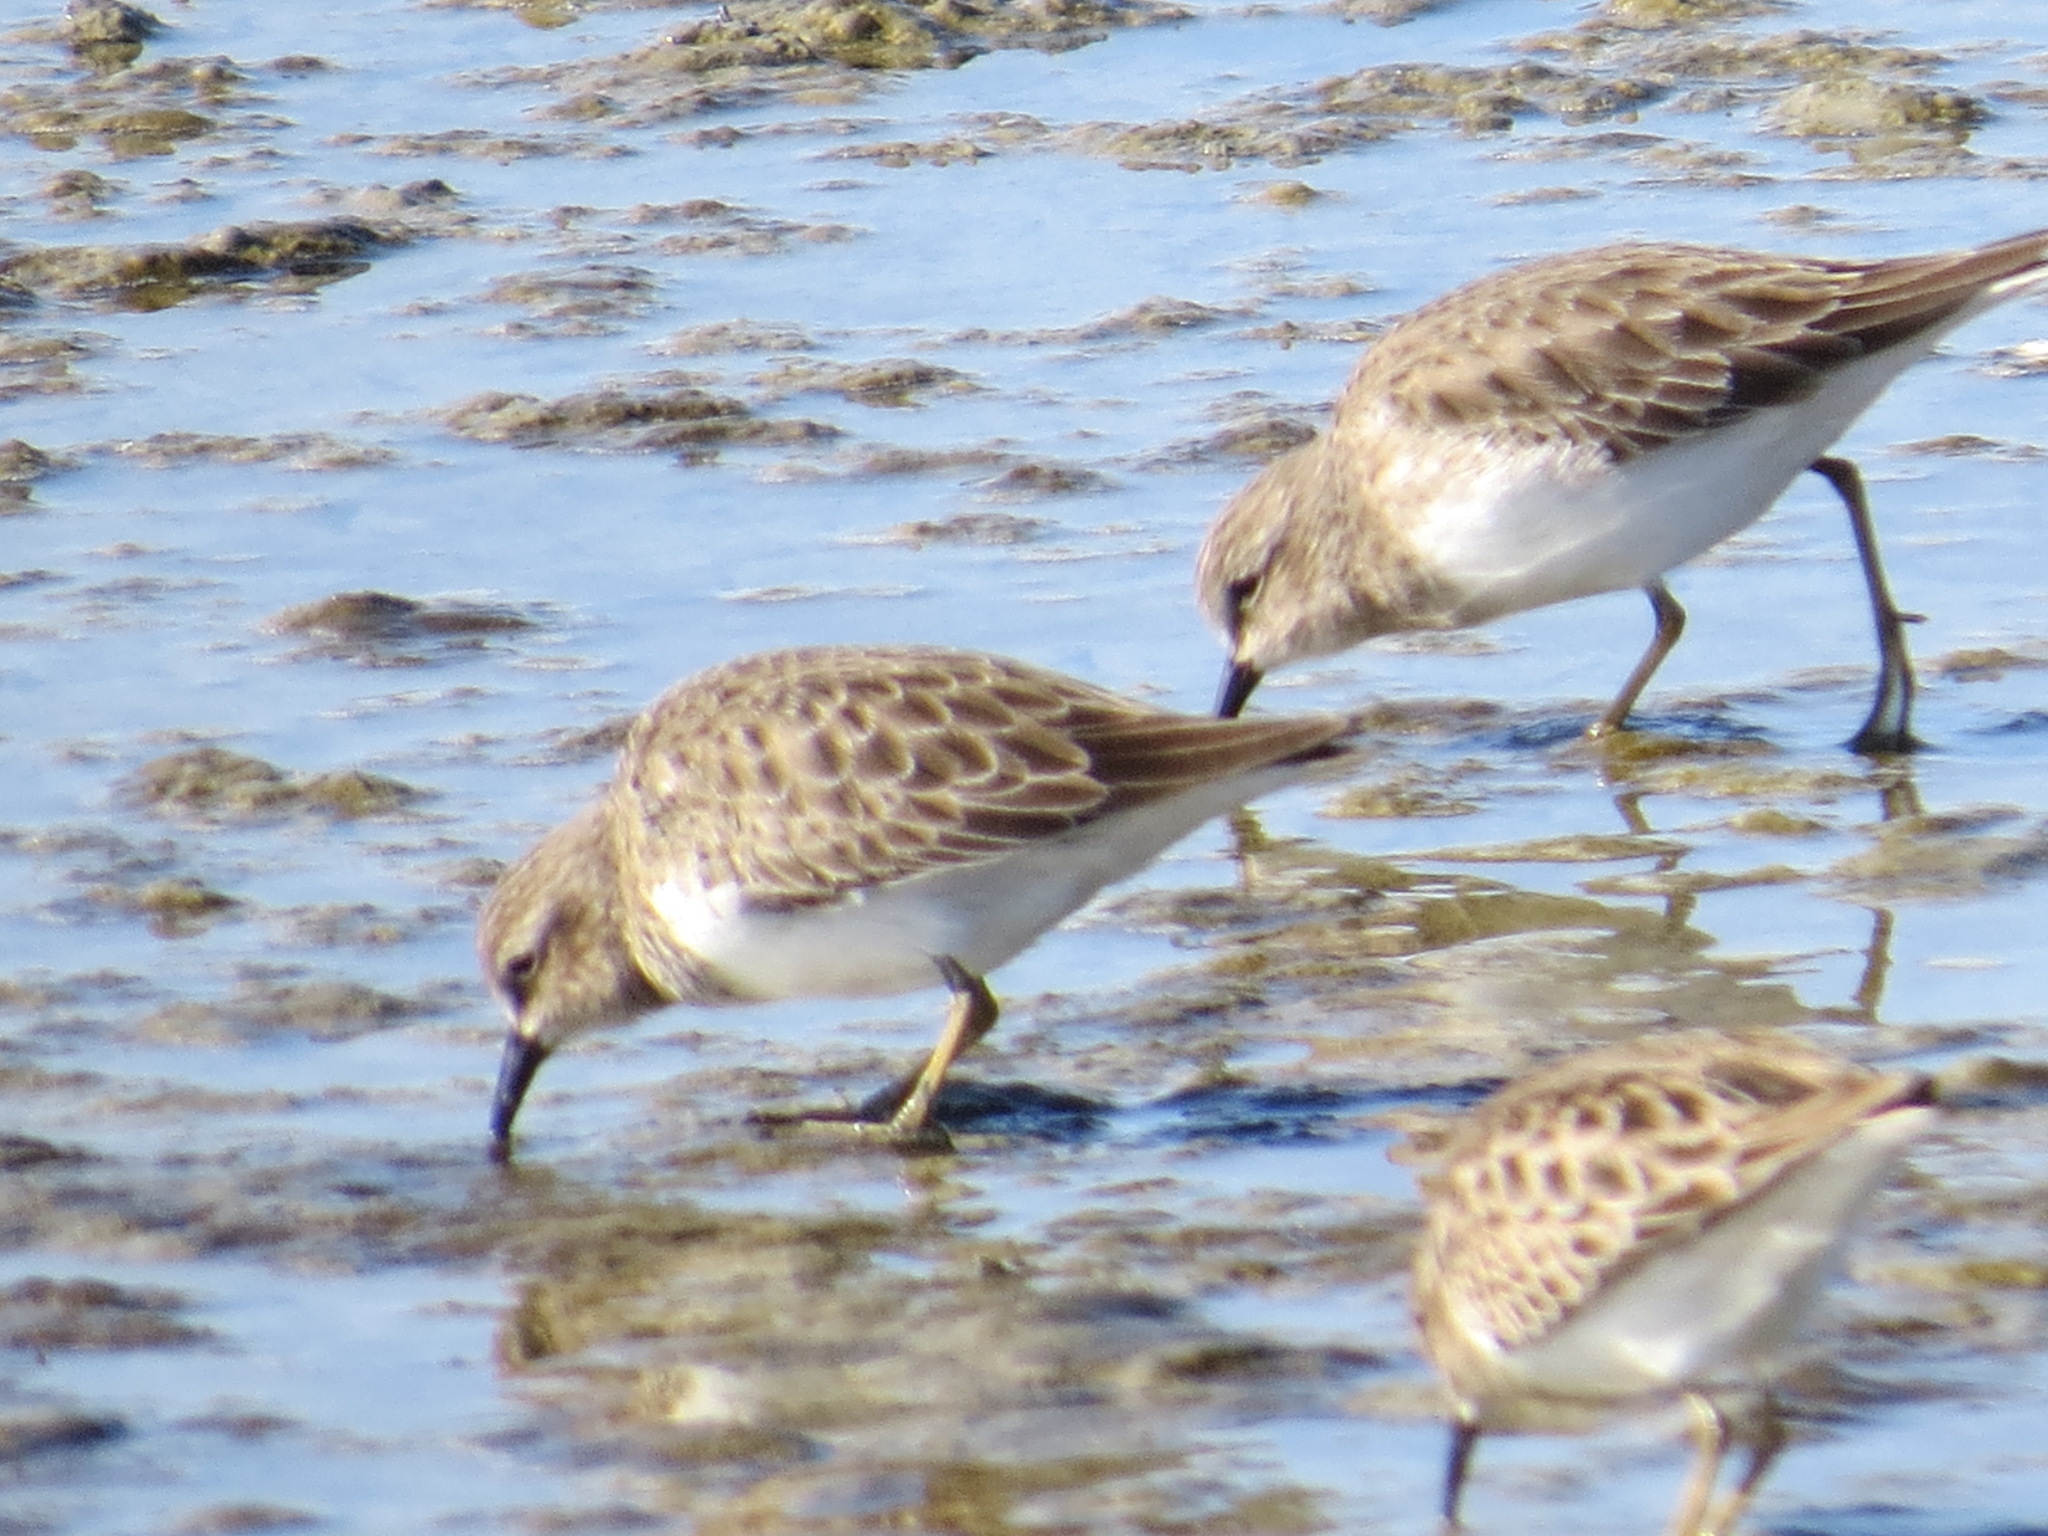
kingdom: Animalia
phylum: Chordata
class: Aves
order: Charadriiformes
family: Scolopacidae
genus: Calidris
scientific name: Calidris minutilla
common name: Least sandpiper
